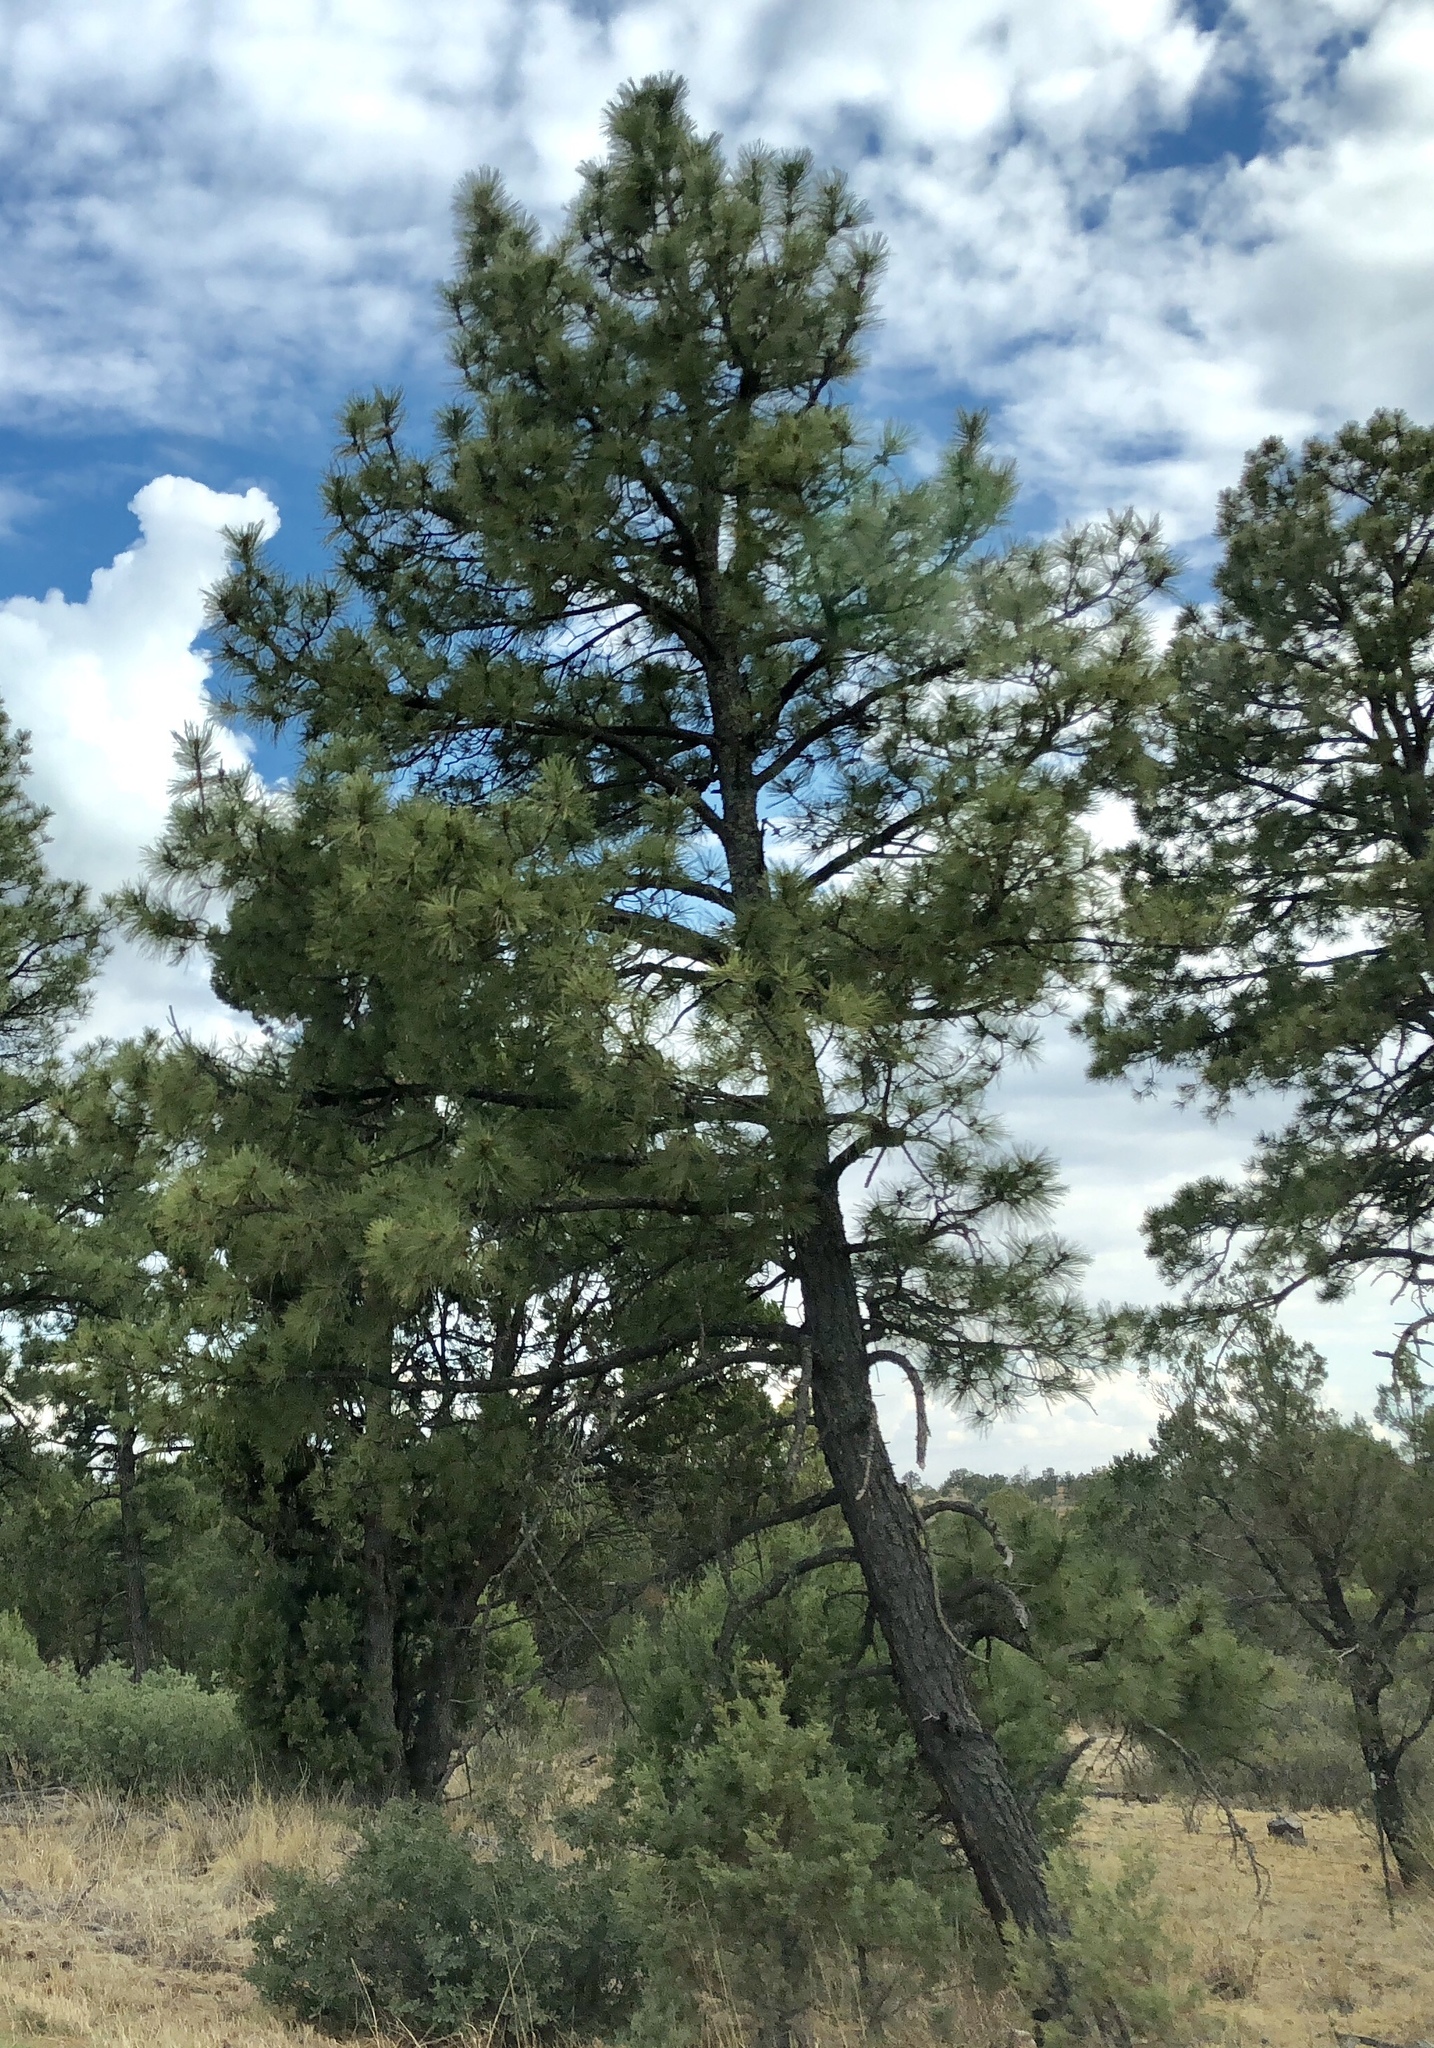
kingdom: Plantae
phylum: Tracheophyta
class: Pinopsida
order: Pinales
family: Pinaceae
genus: Pinus
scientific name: Pinus ponderosa
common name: Western yellow-pine
